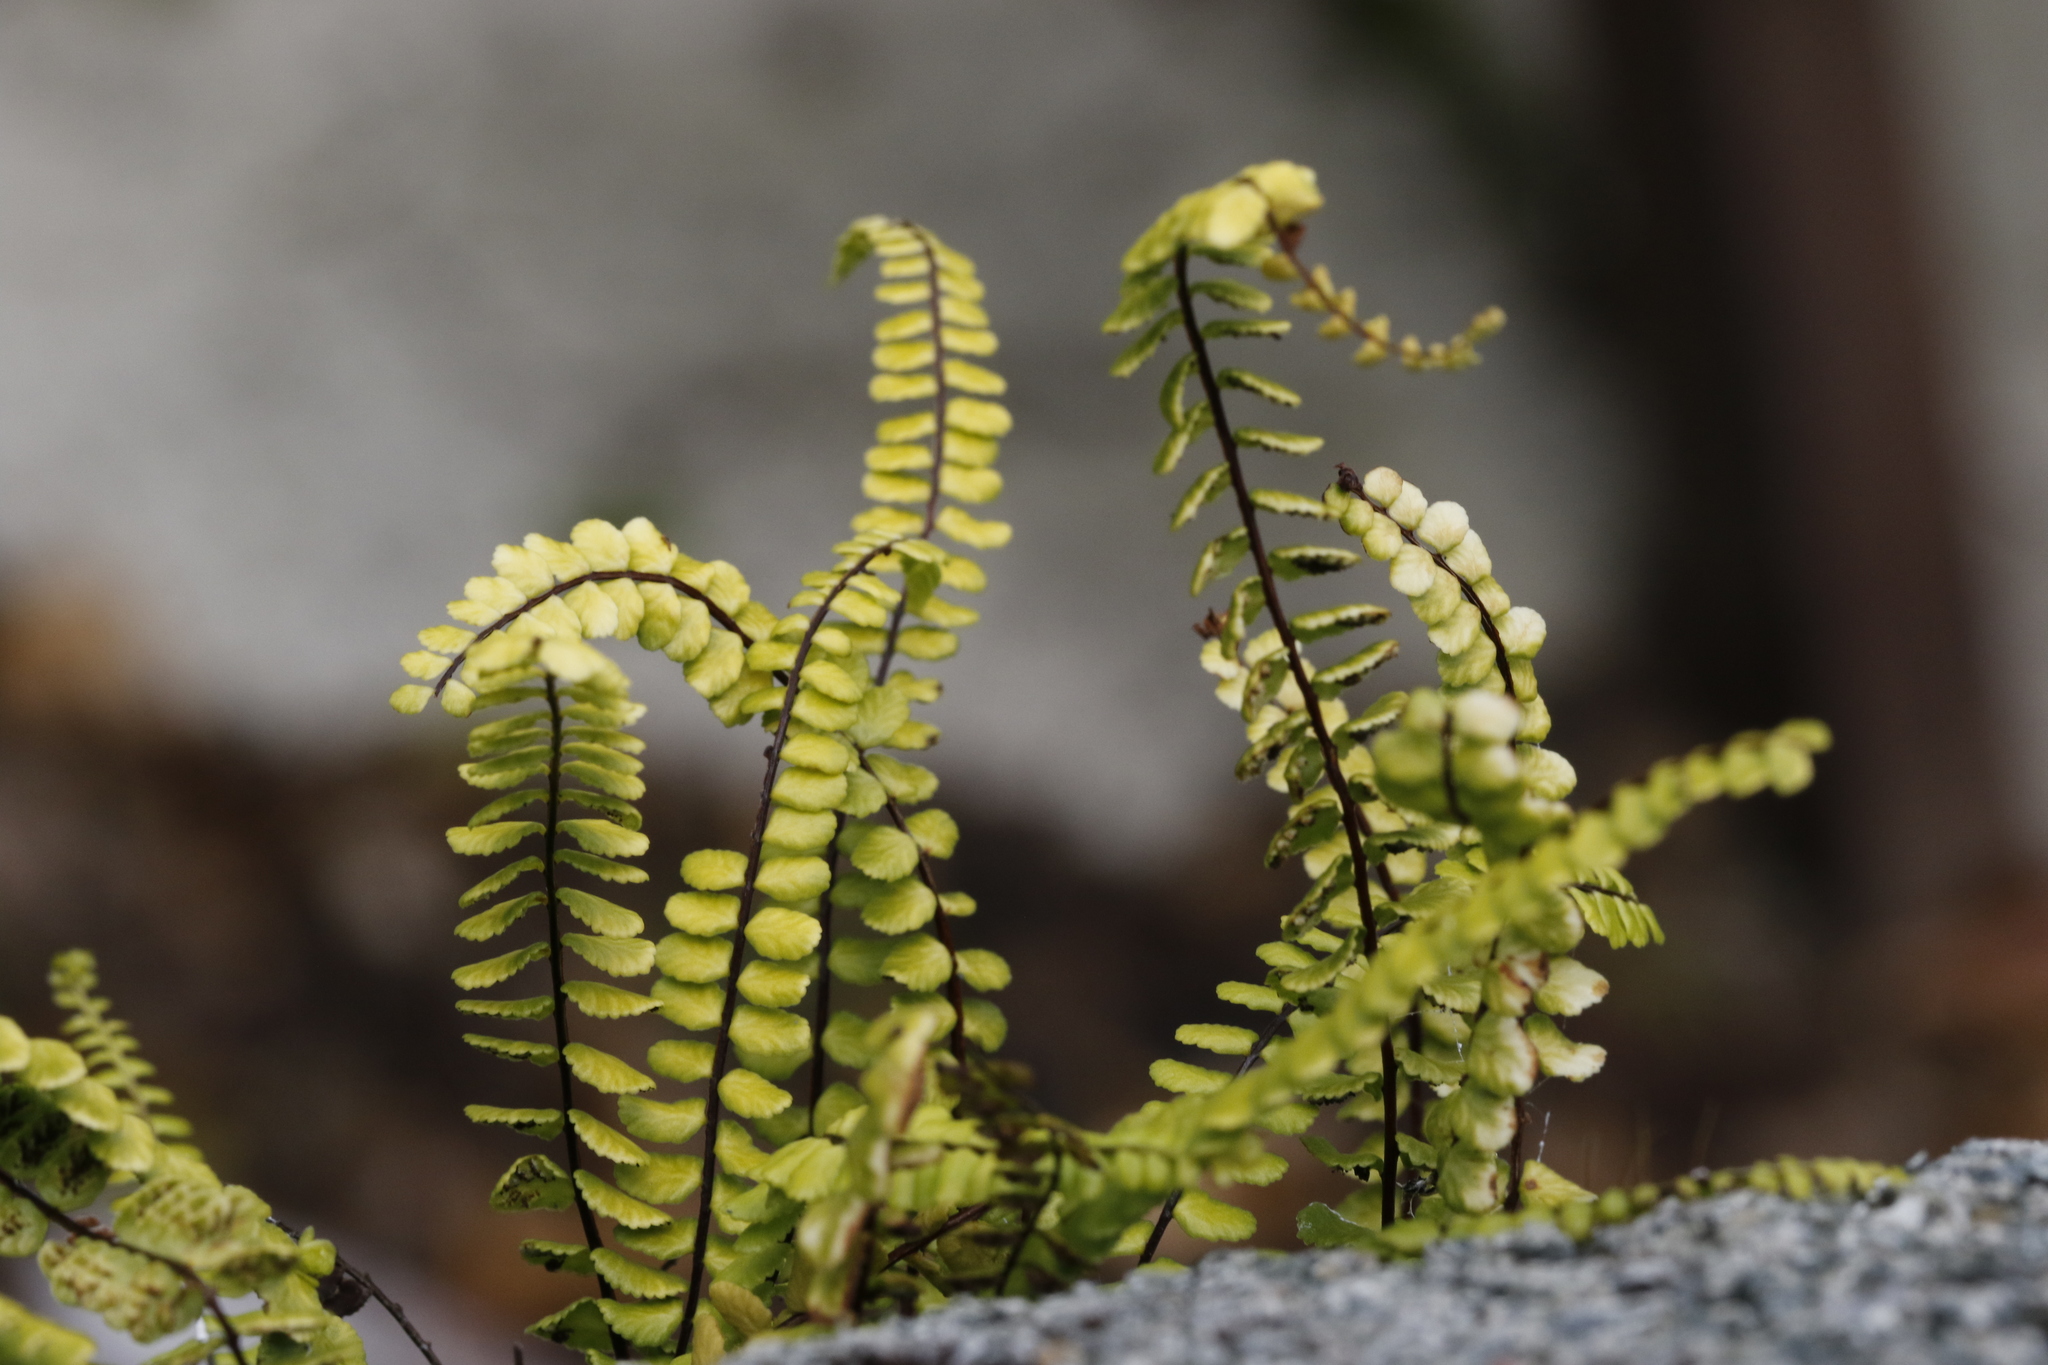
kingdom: Plantae
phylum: Tracheophyta
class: Polypodiopsida
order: Polypodiales
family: Aspleniaceae
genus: Asplenium
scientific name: Asplenium trichomanes
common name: Maidenhair spleenwort
